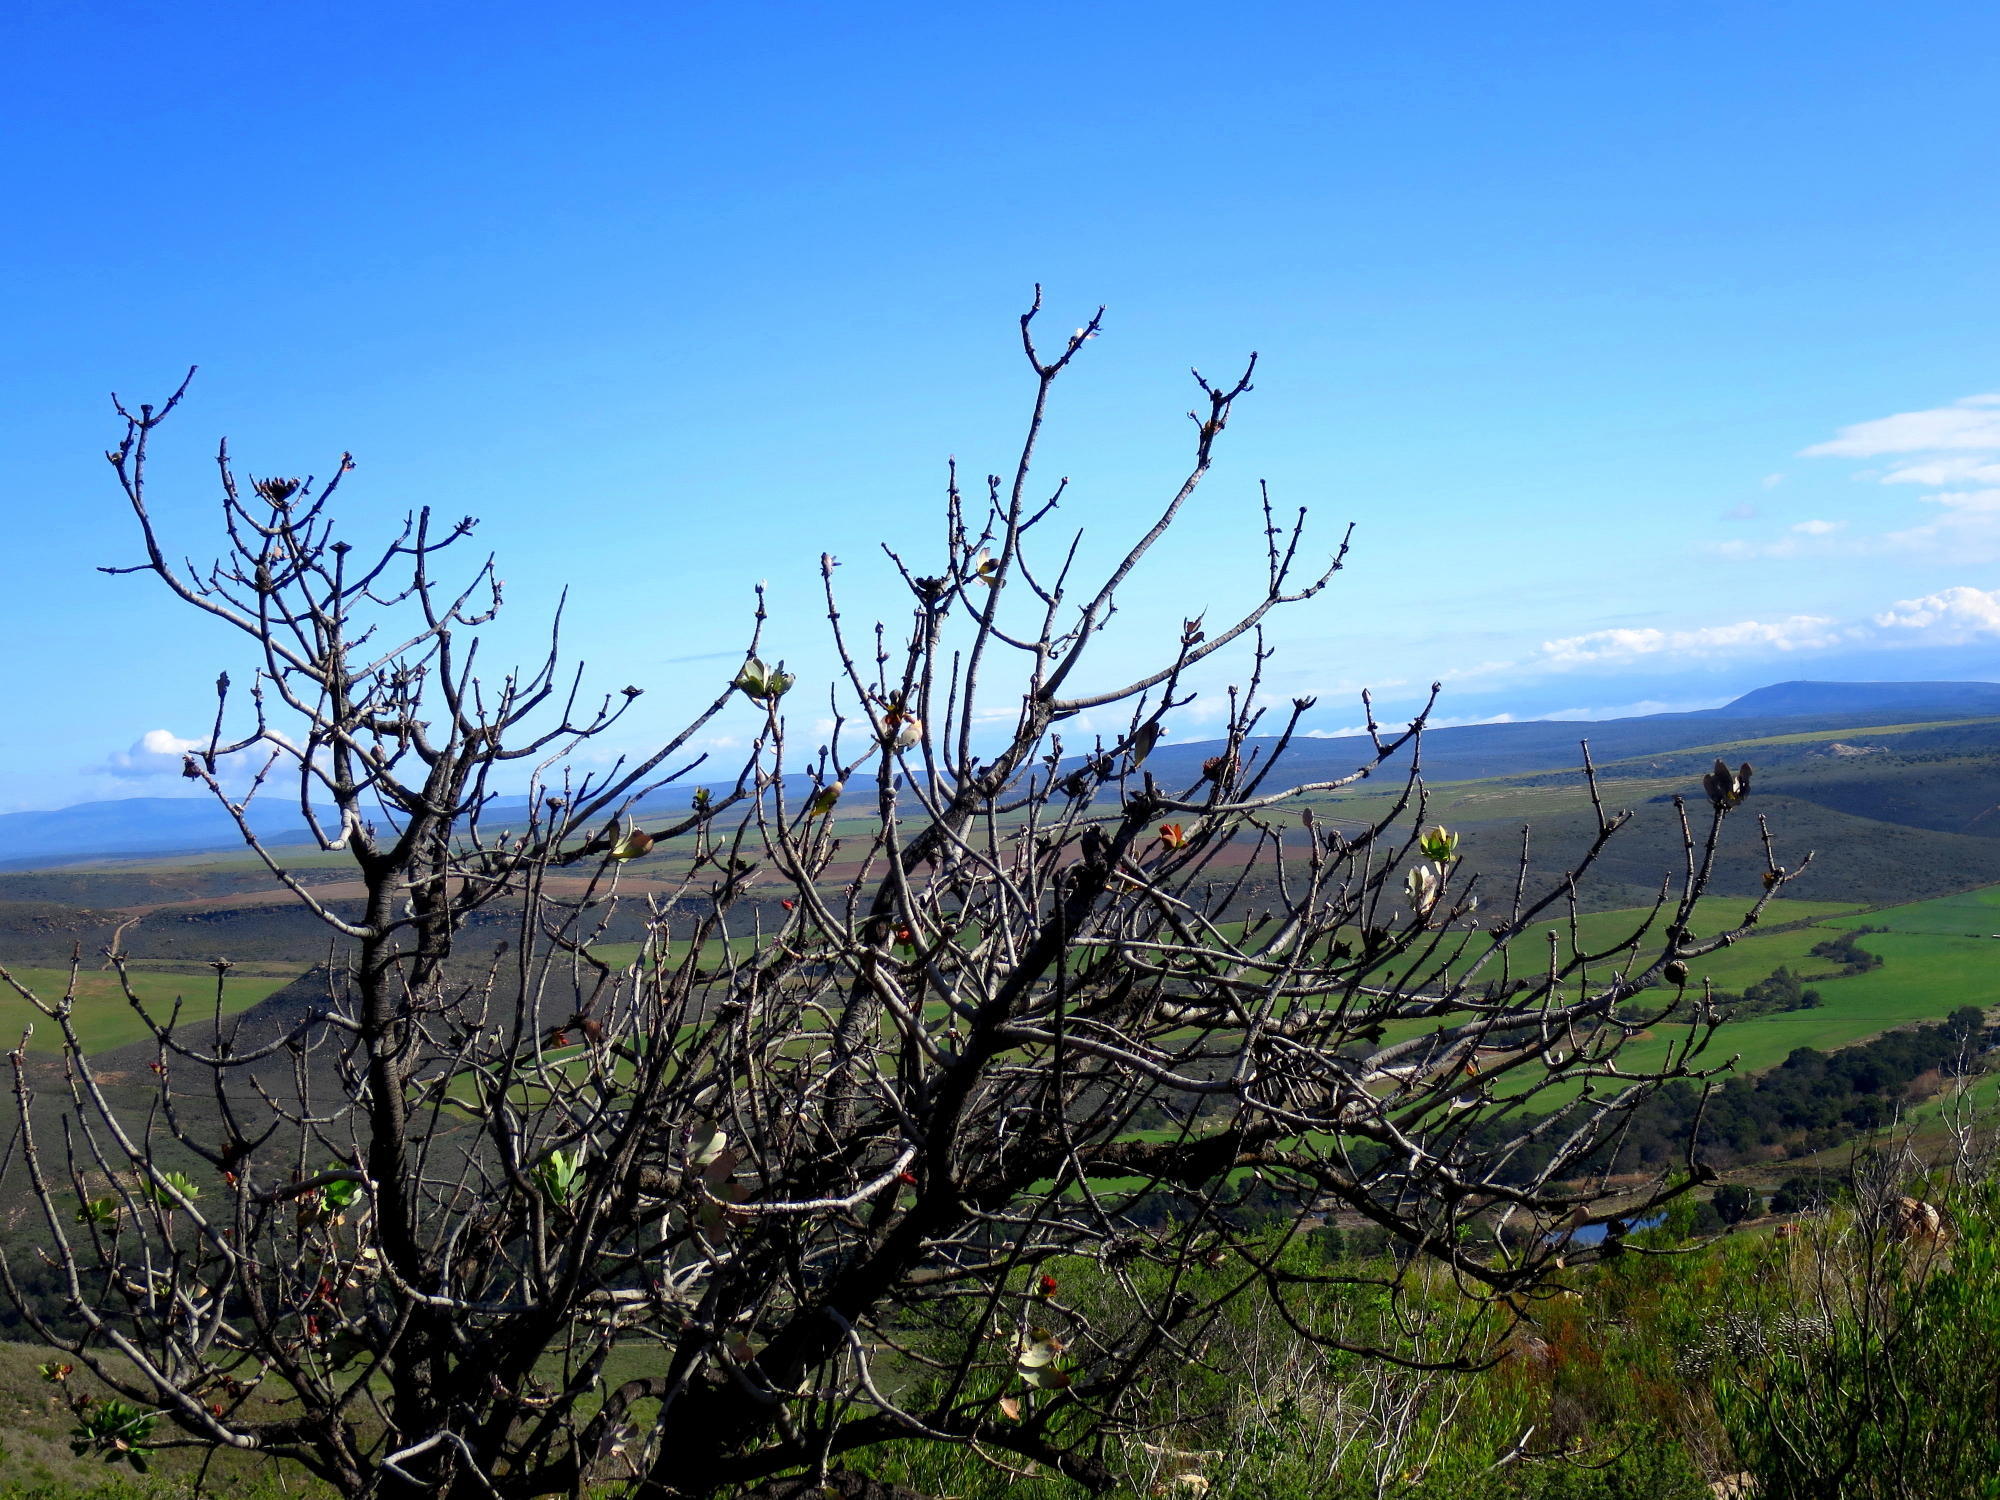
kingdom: Plantae
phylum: Tracheophyta
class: Magnoliopsida
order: Proteales
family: Proteaceae
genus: Protea
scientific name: Protea nitida
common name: Tree protea
